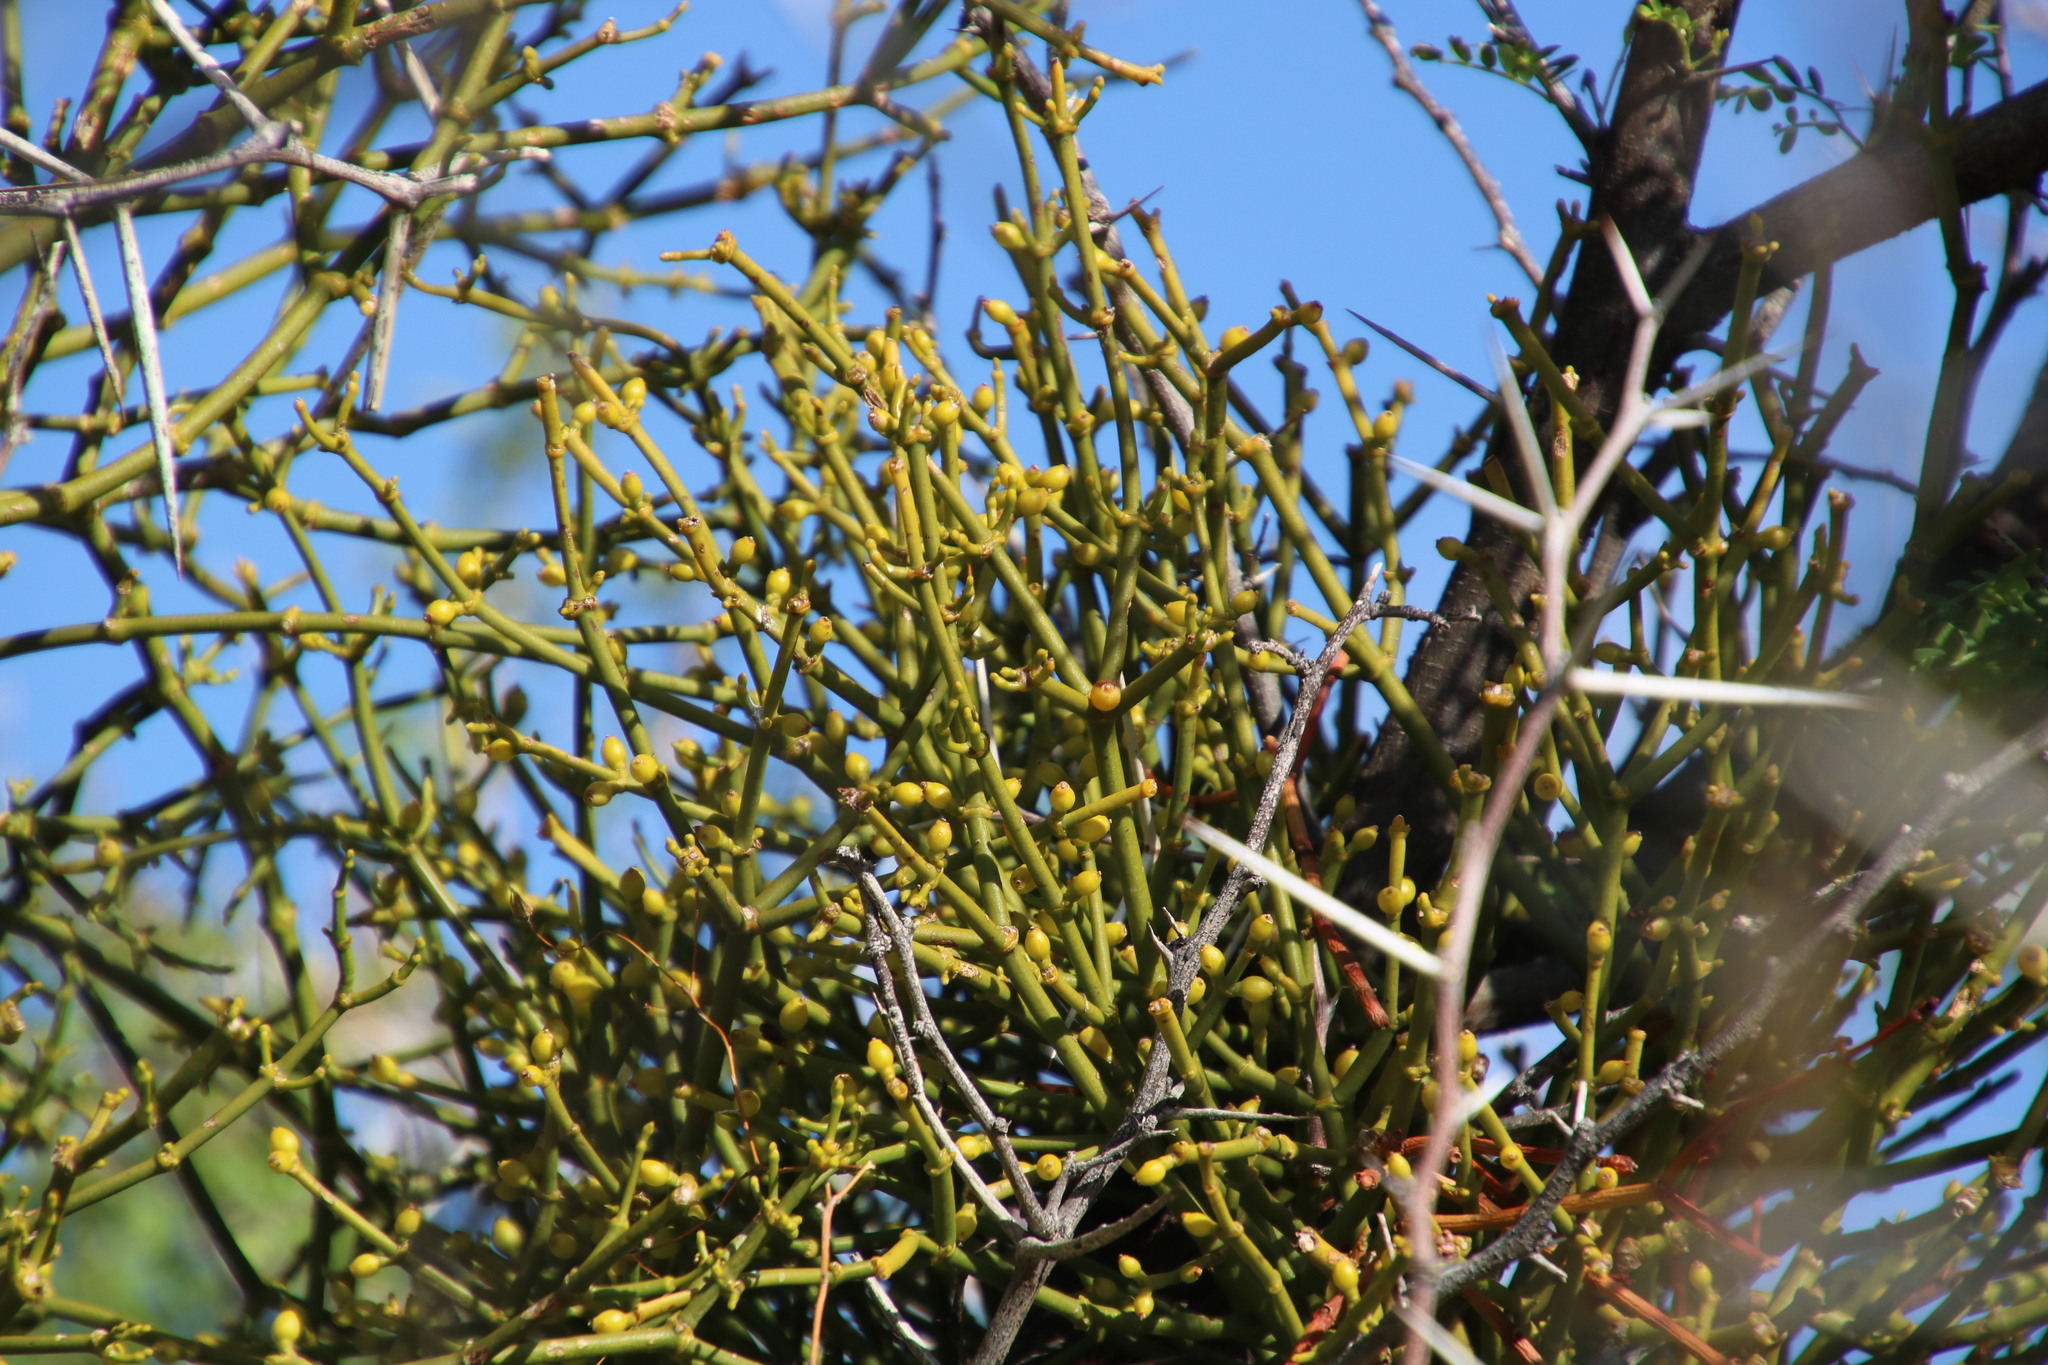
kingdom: Plantae
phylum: Tracheophyta
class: Magnoliopsida
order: Fabales
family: Fabaceae
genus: Vachellia
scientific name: Vachellia karroo
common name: Sweet thorn
